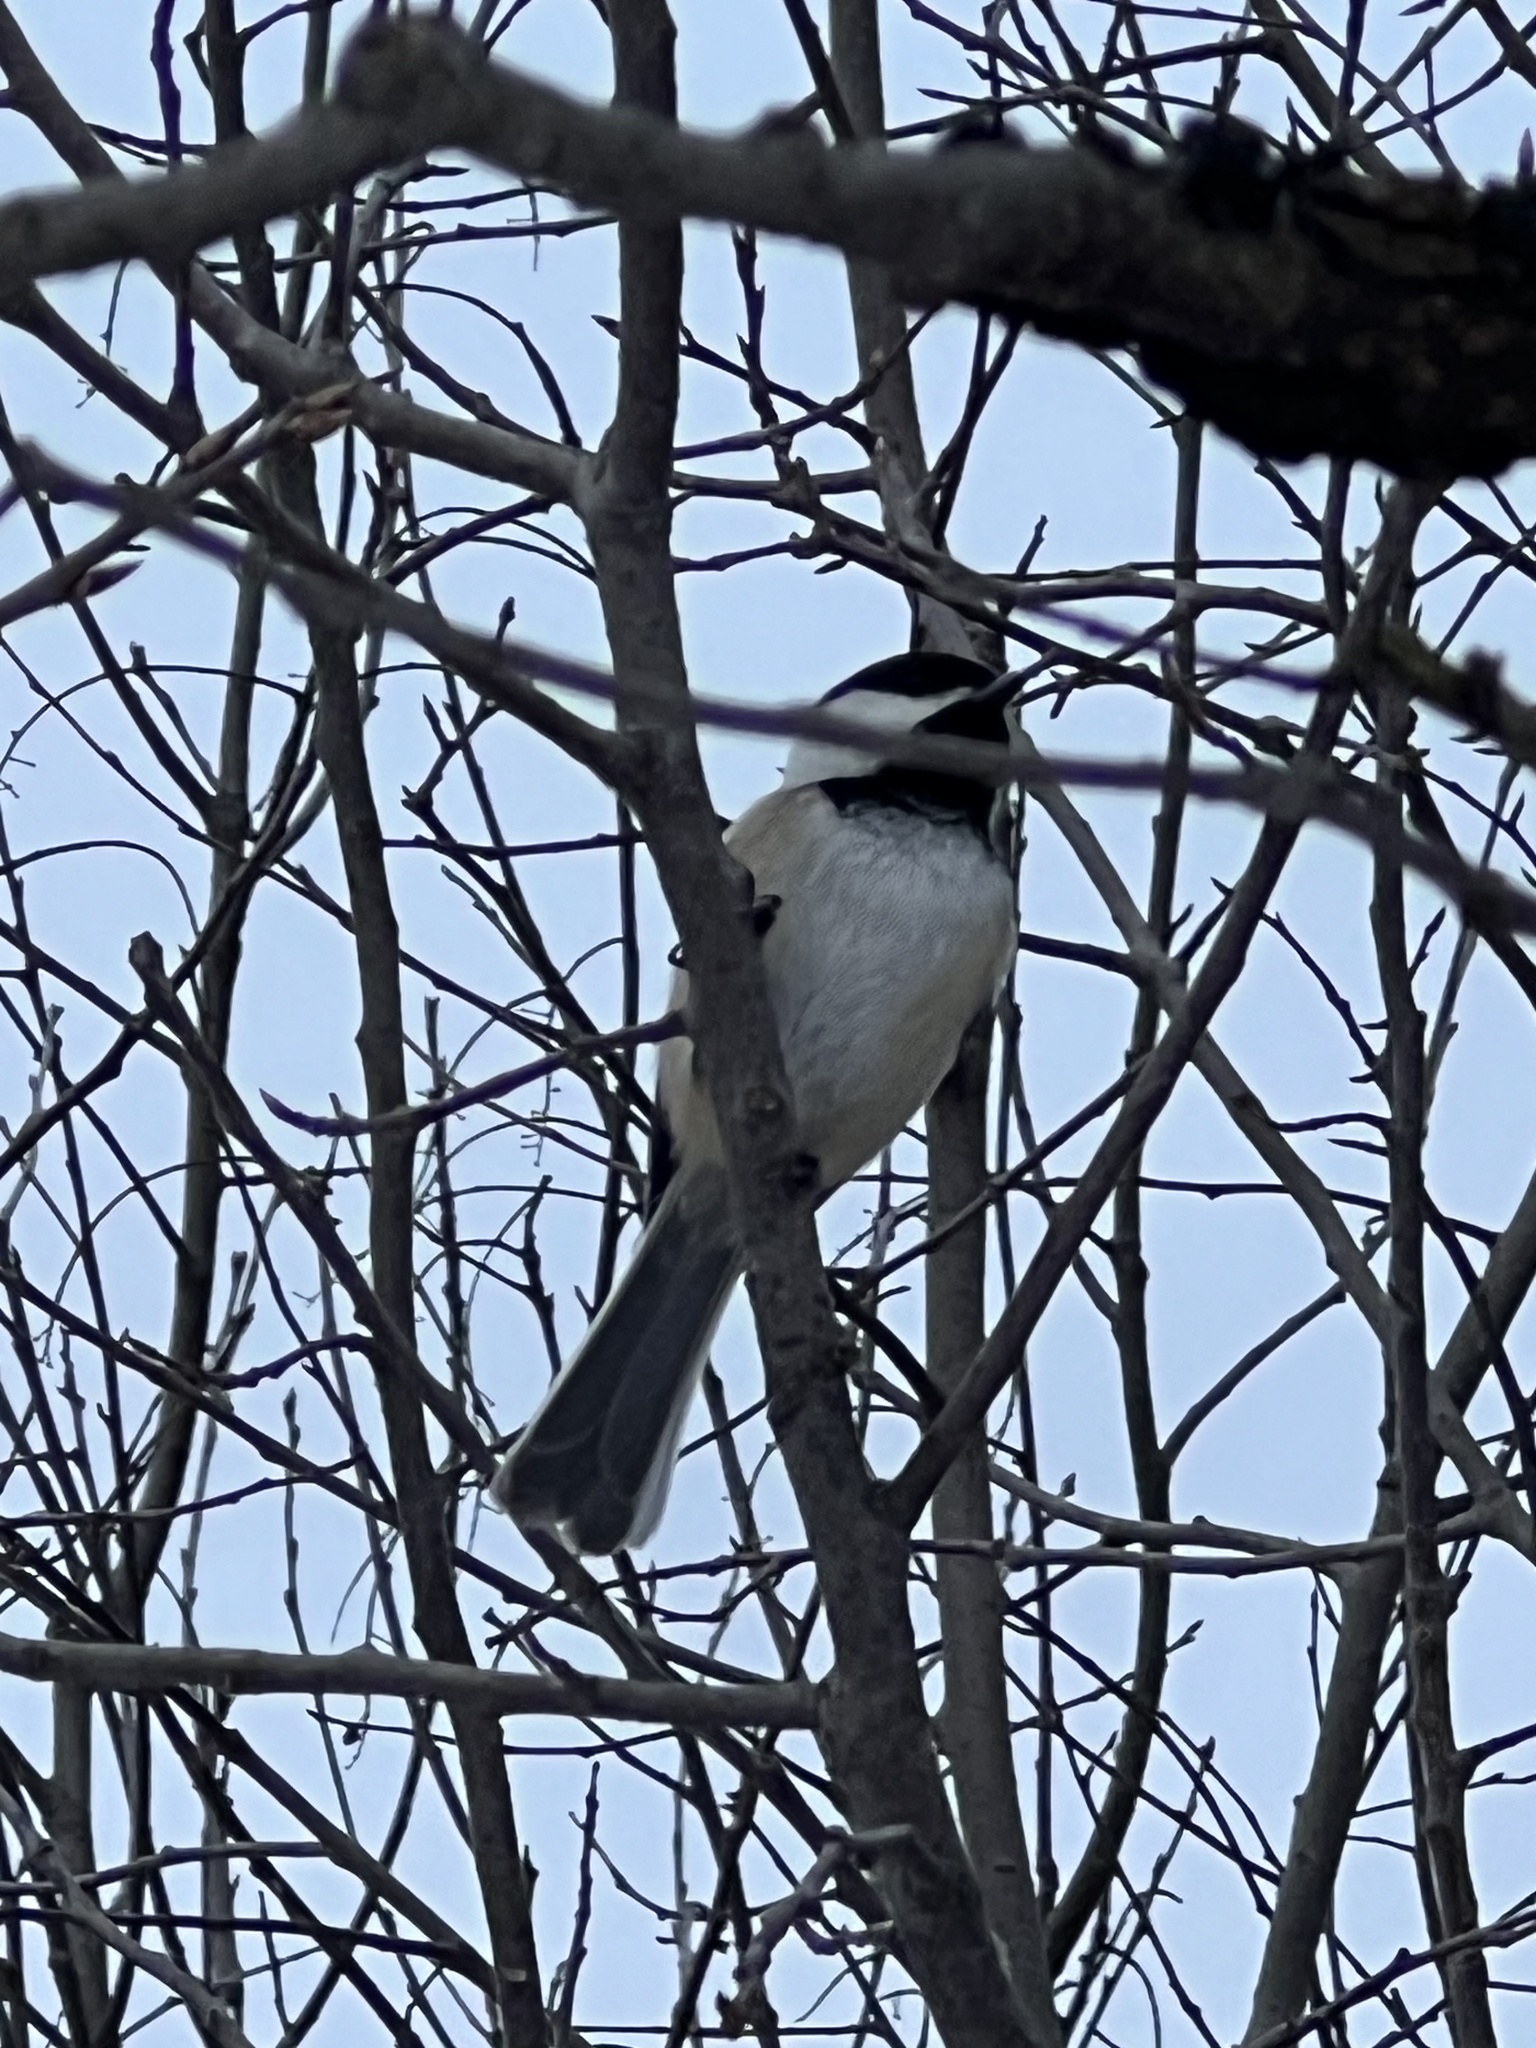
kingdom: Animalia
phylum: Chordata
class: Aves
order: Passeriformes
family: Paridae
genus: Poecile
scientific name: Poecile atricapillus
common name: Black-capped chickadee
